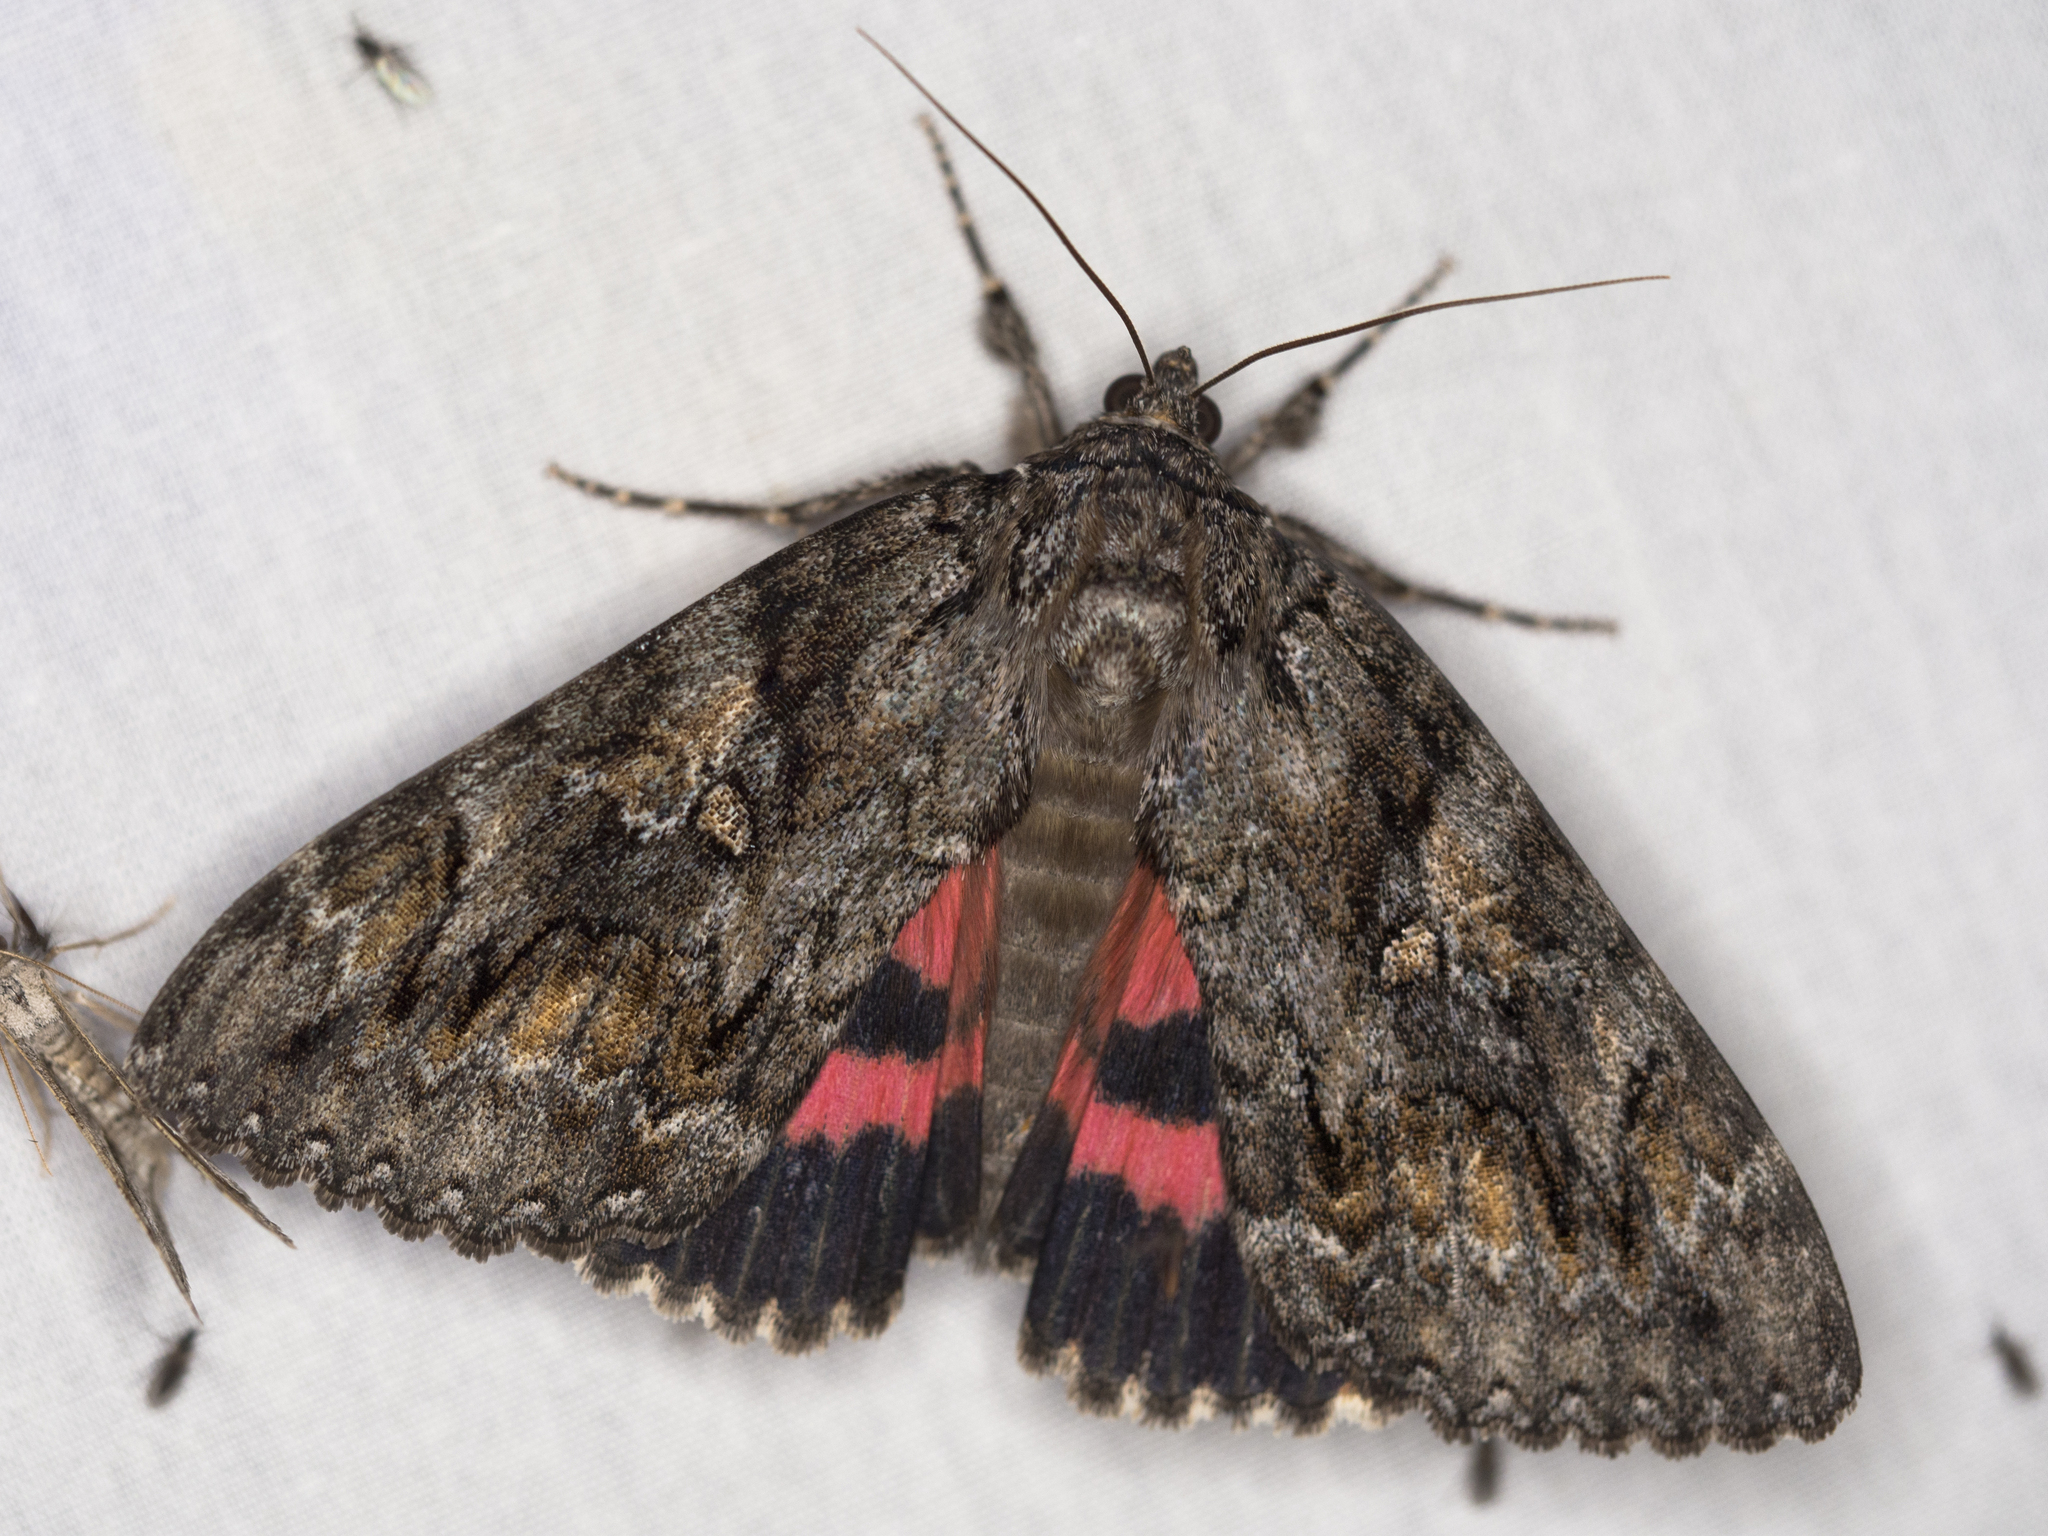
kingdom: Animalia
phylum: Arthropoda
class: Insecta
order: Lepidoptera
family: Erebidae
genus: Catocala
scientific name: Catocala aholibah
